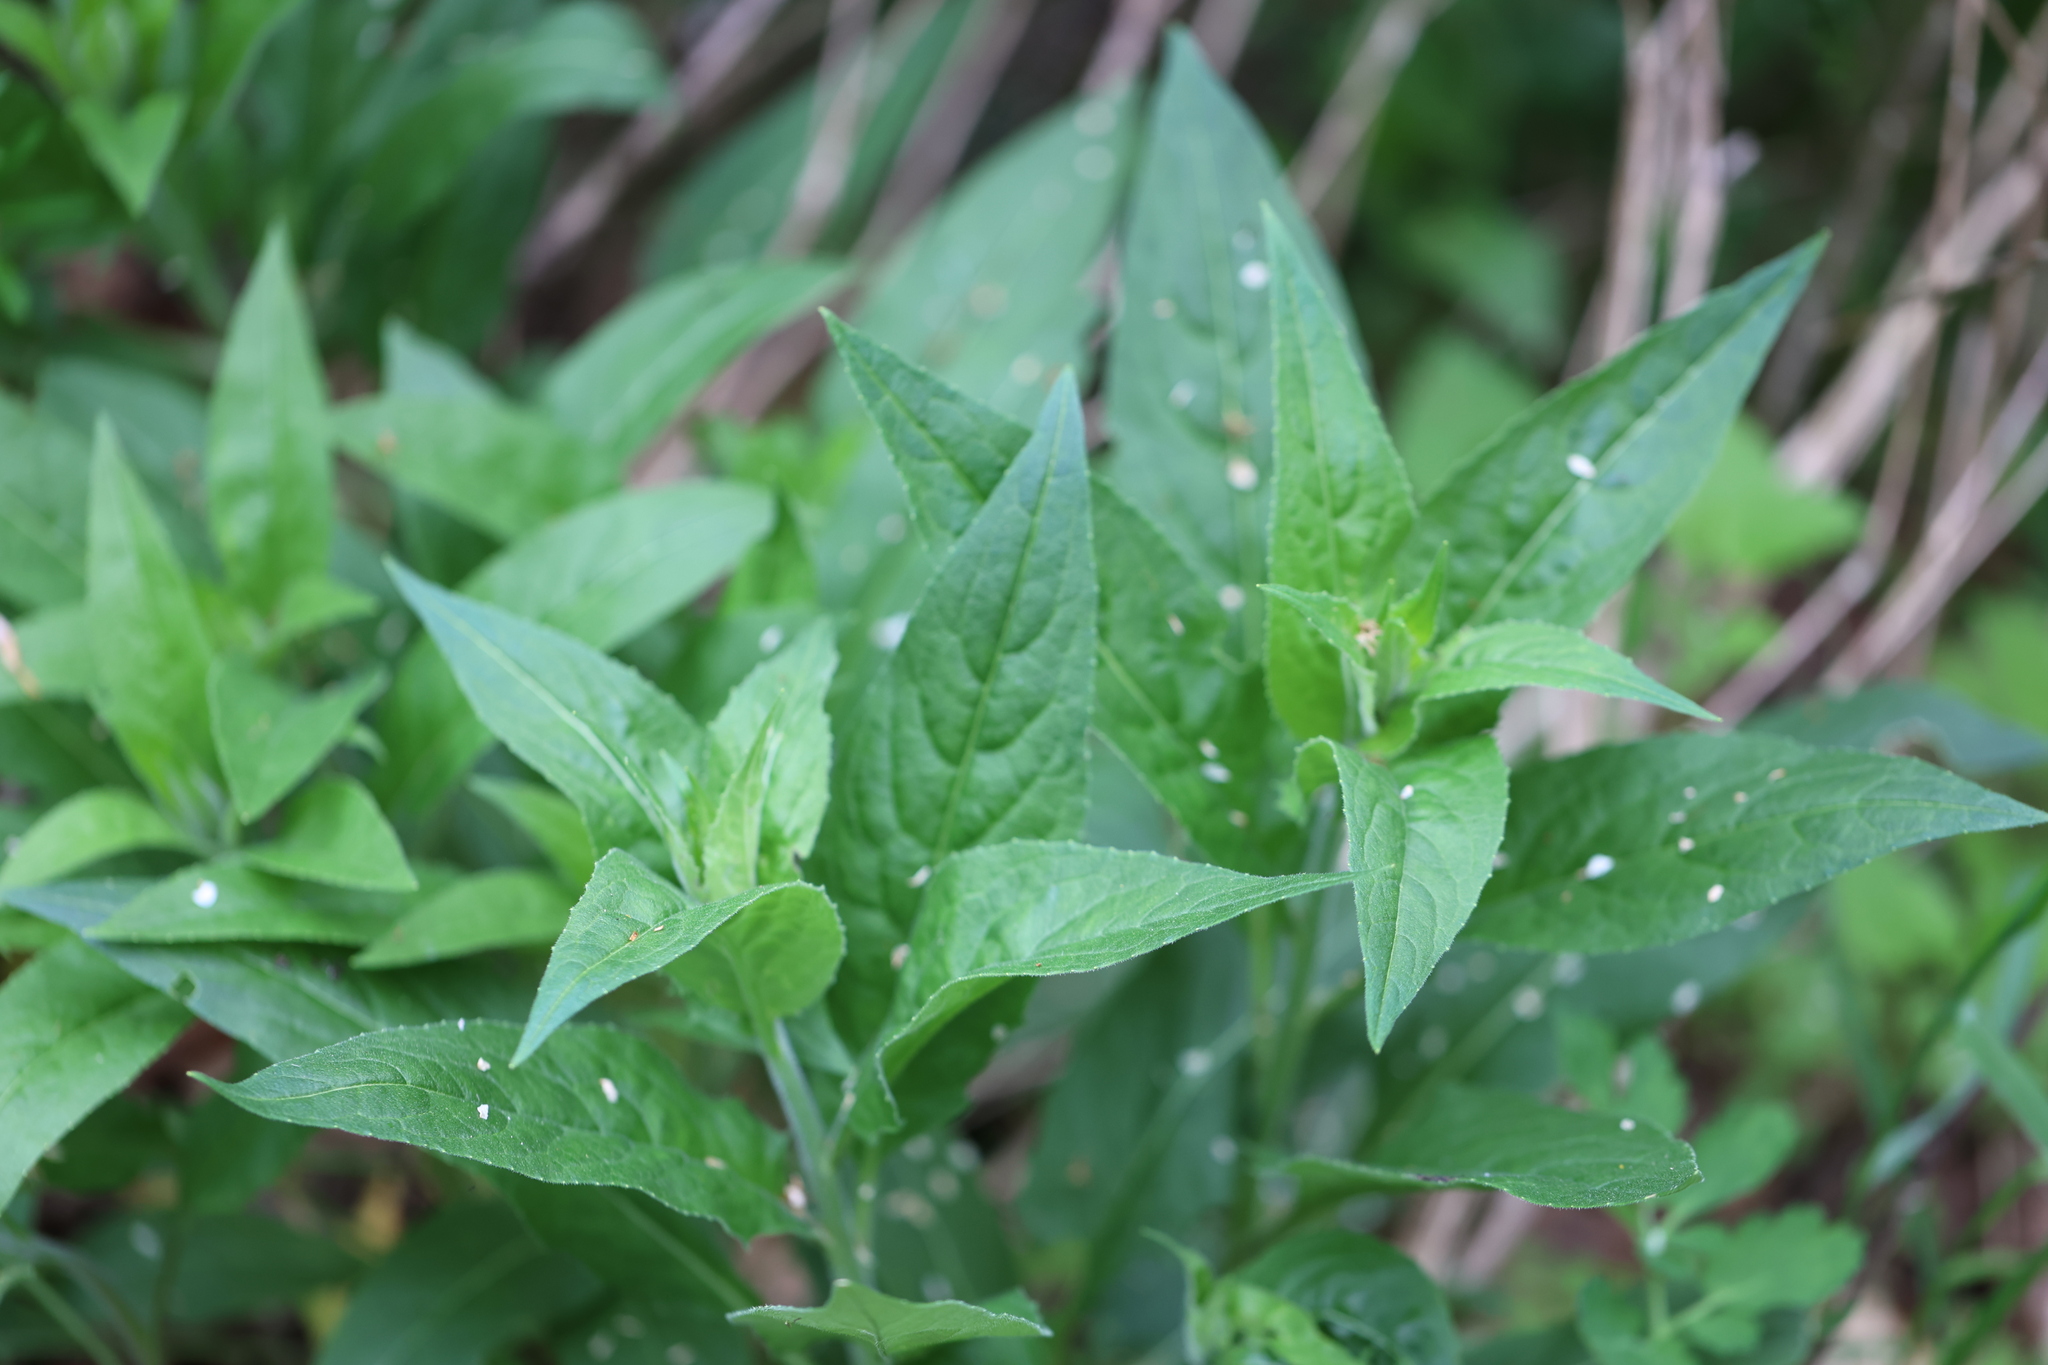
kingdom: Plantae
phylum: Tracheophyta
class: Magnoliopsida
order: Brassicales
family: Brassicaceae
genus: Hesperis
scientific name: Hesperis matronalis
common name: Dame's-violet
